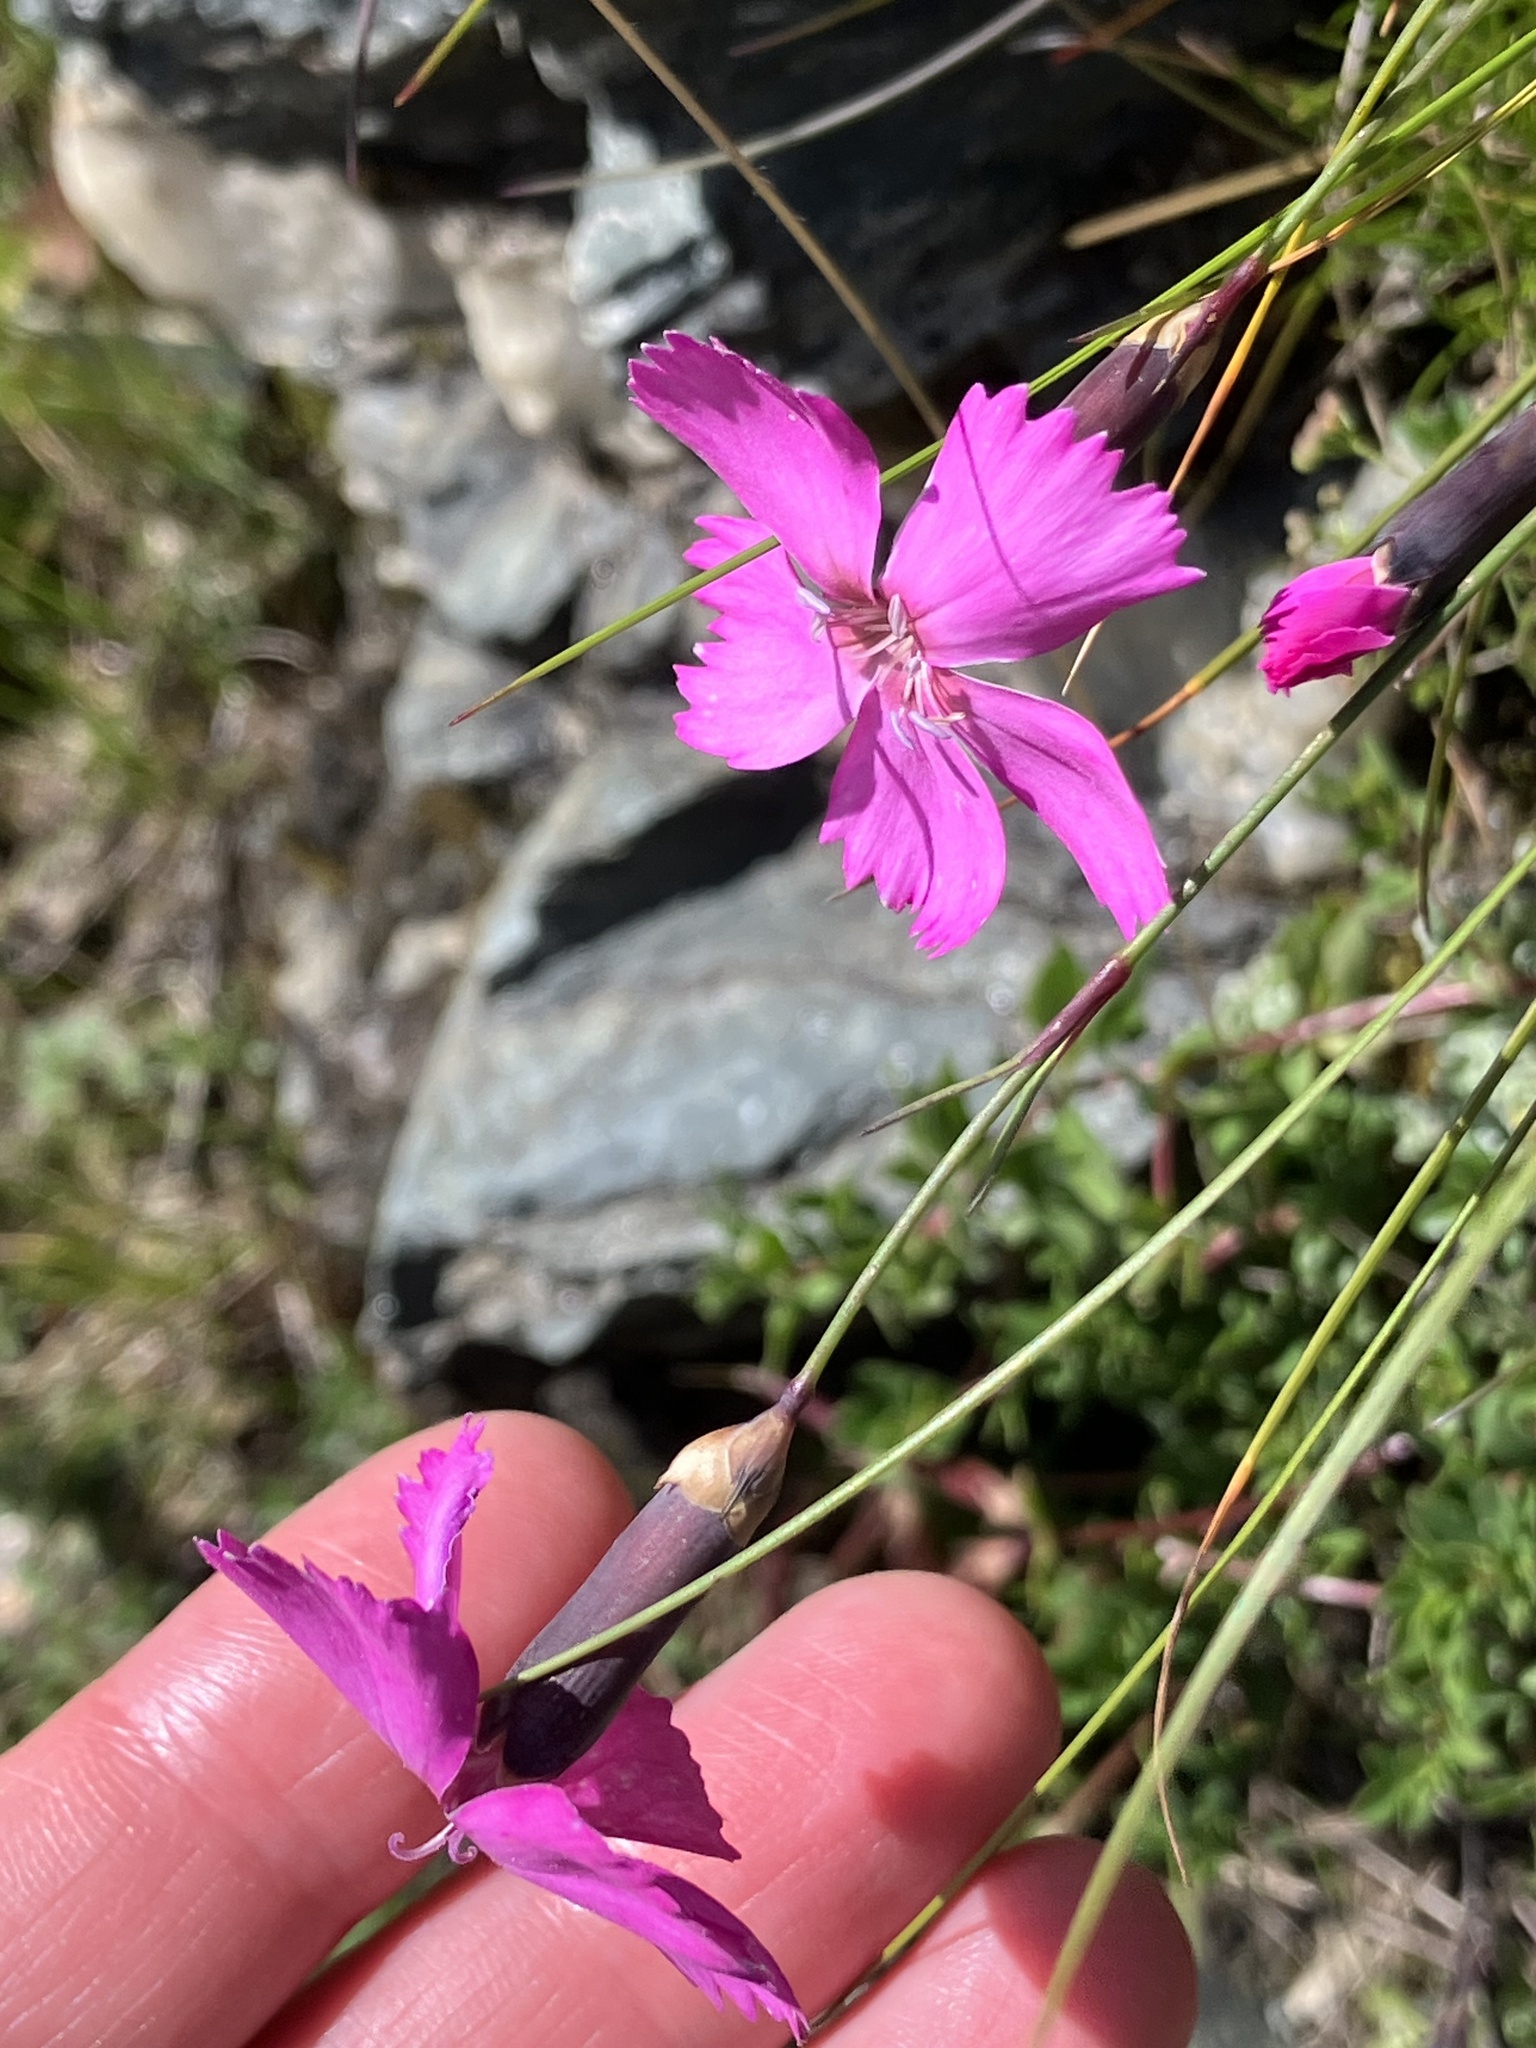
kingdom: Plantae
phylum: Tracheophyta
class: Magnoliopsida
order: Caryophyllales
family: Caryophyllaceae
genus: Dianthus
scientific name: Dianthus sylvestris
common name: Wood pink
